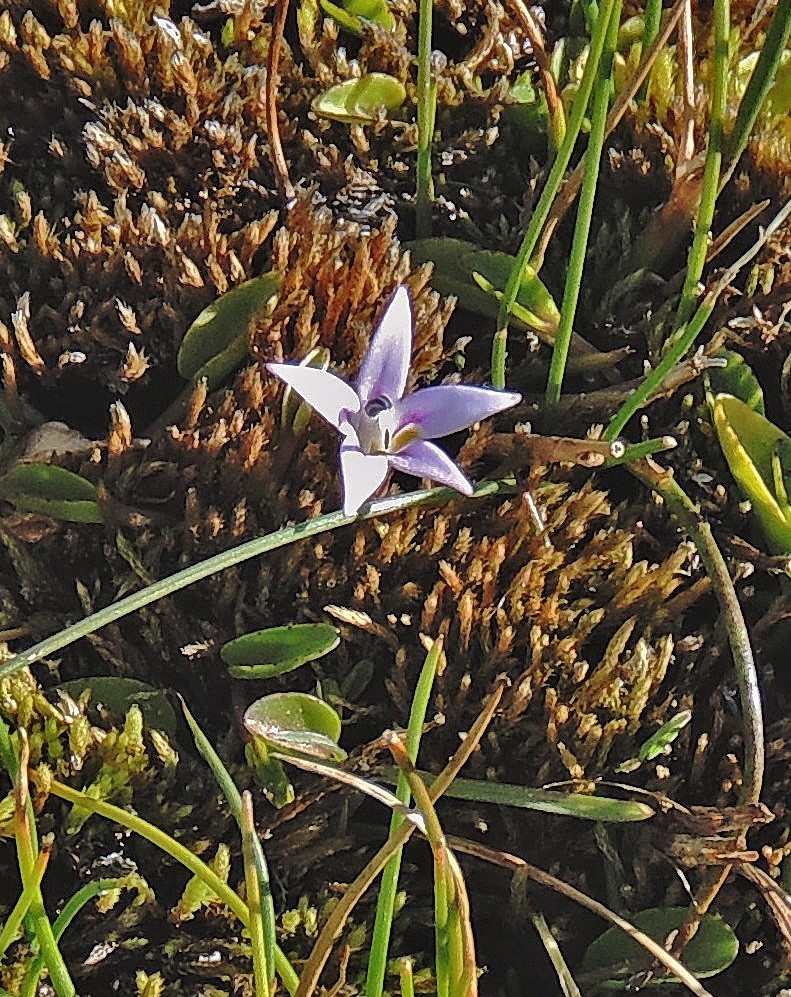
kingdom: Plantae
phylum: Tracheophyta
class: Magnoliopsida
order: Asterales
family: Campanulaceae
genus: Lobelia
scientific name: Lobelia oligophylla
